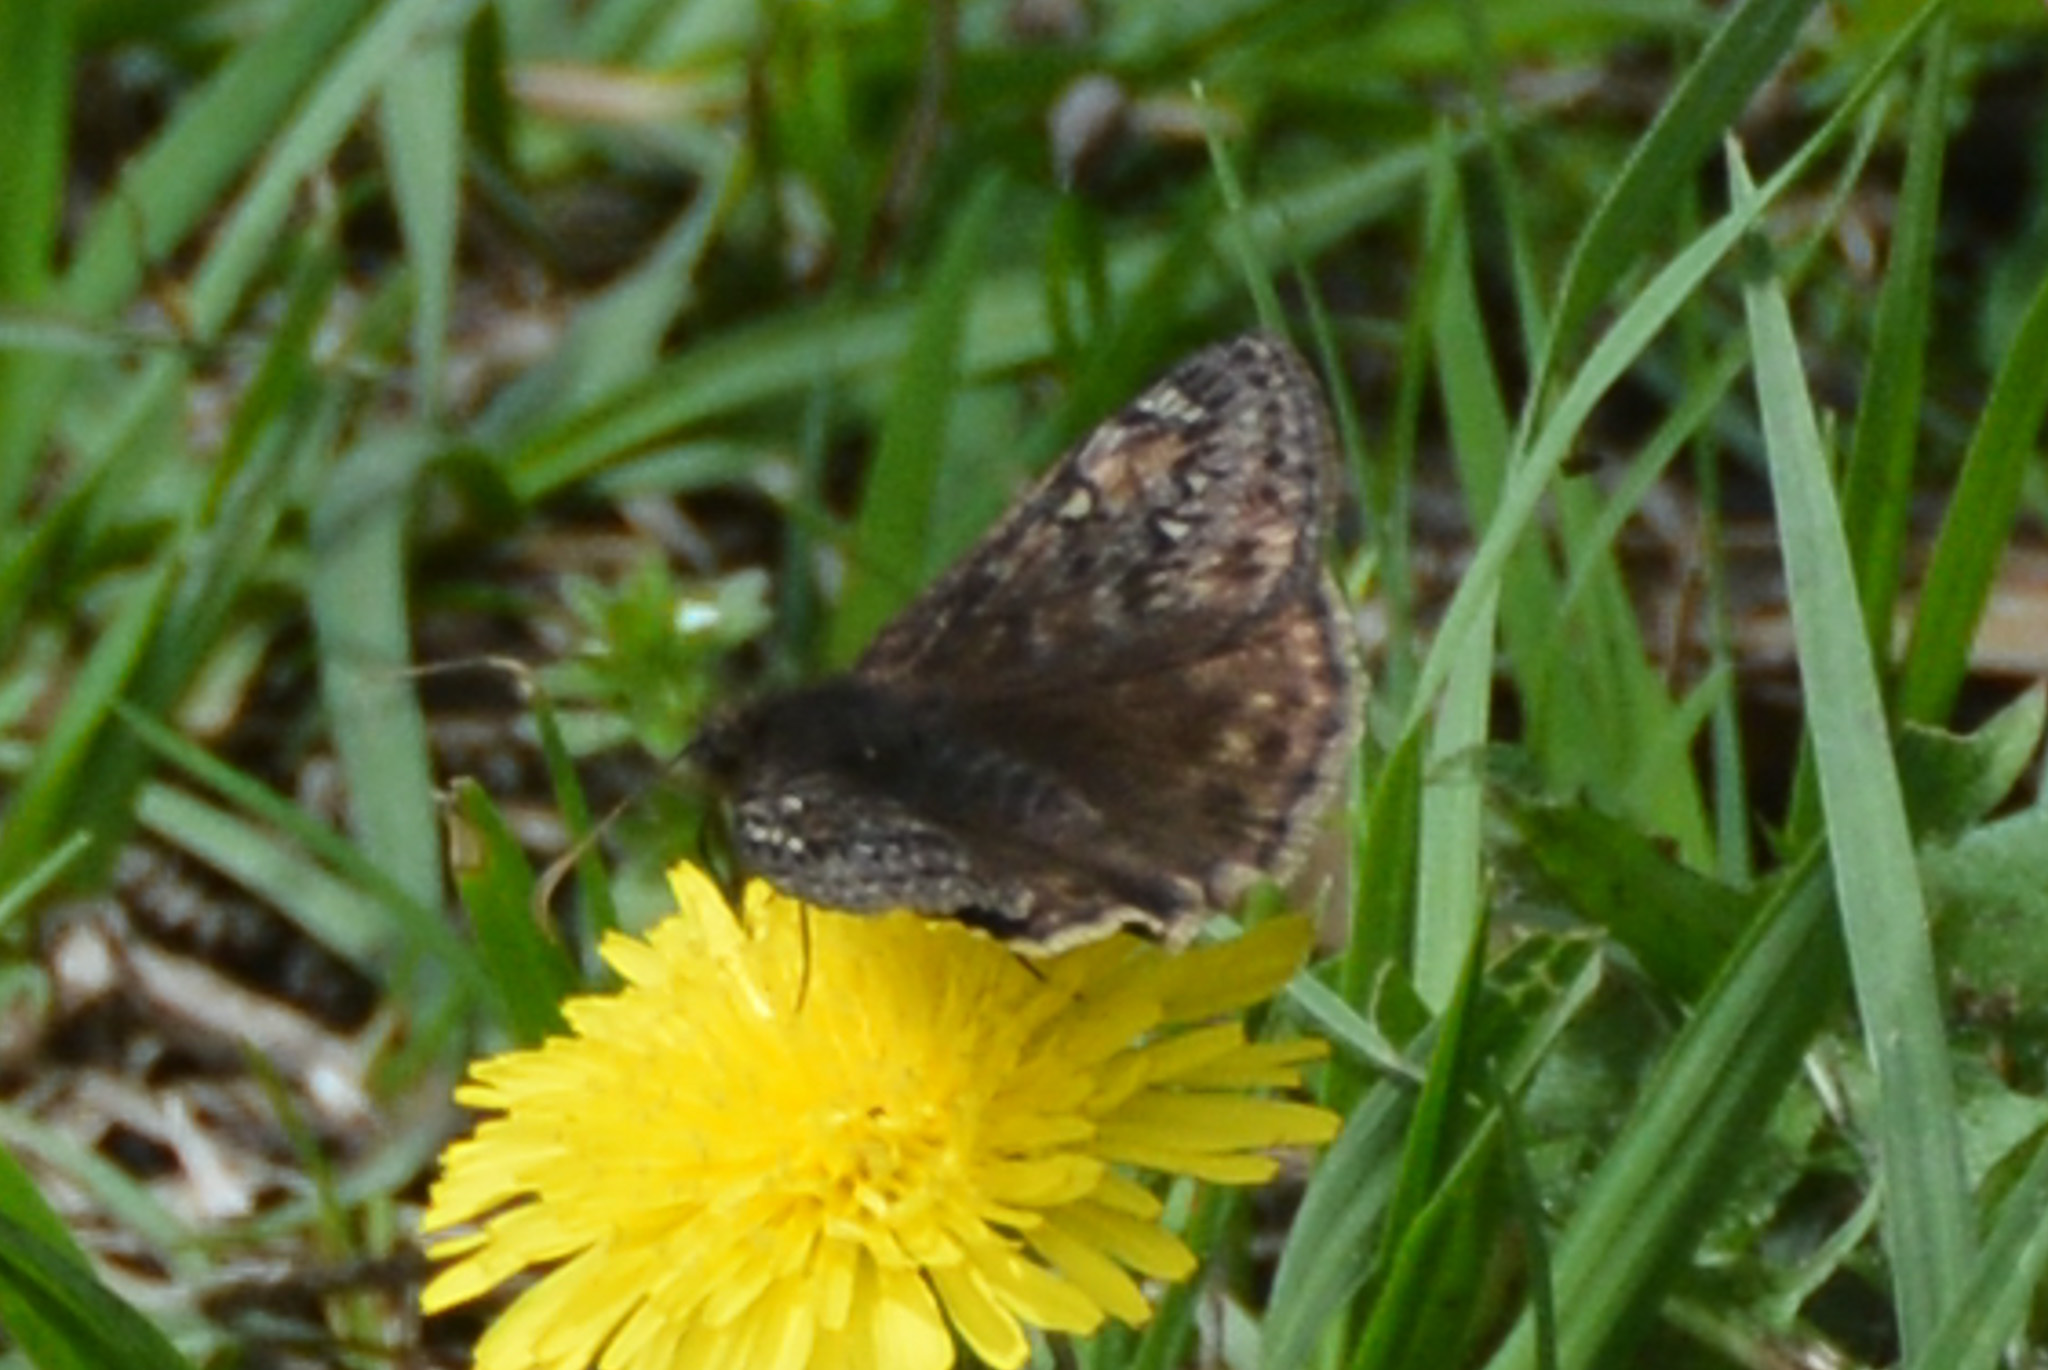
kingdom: Animalia
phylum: Arthropoda
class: Insecta
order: Lepidoptera
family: Hesperiidae
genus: Erynnis
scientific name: Erynnis juvenalis
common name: Juvenal's duskywing
